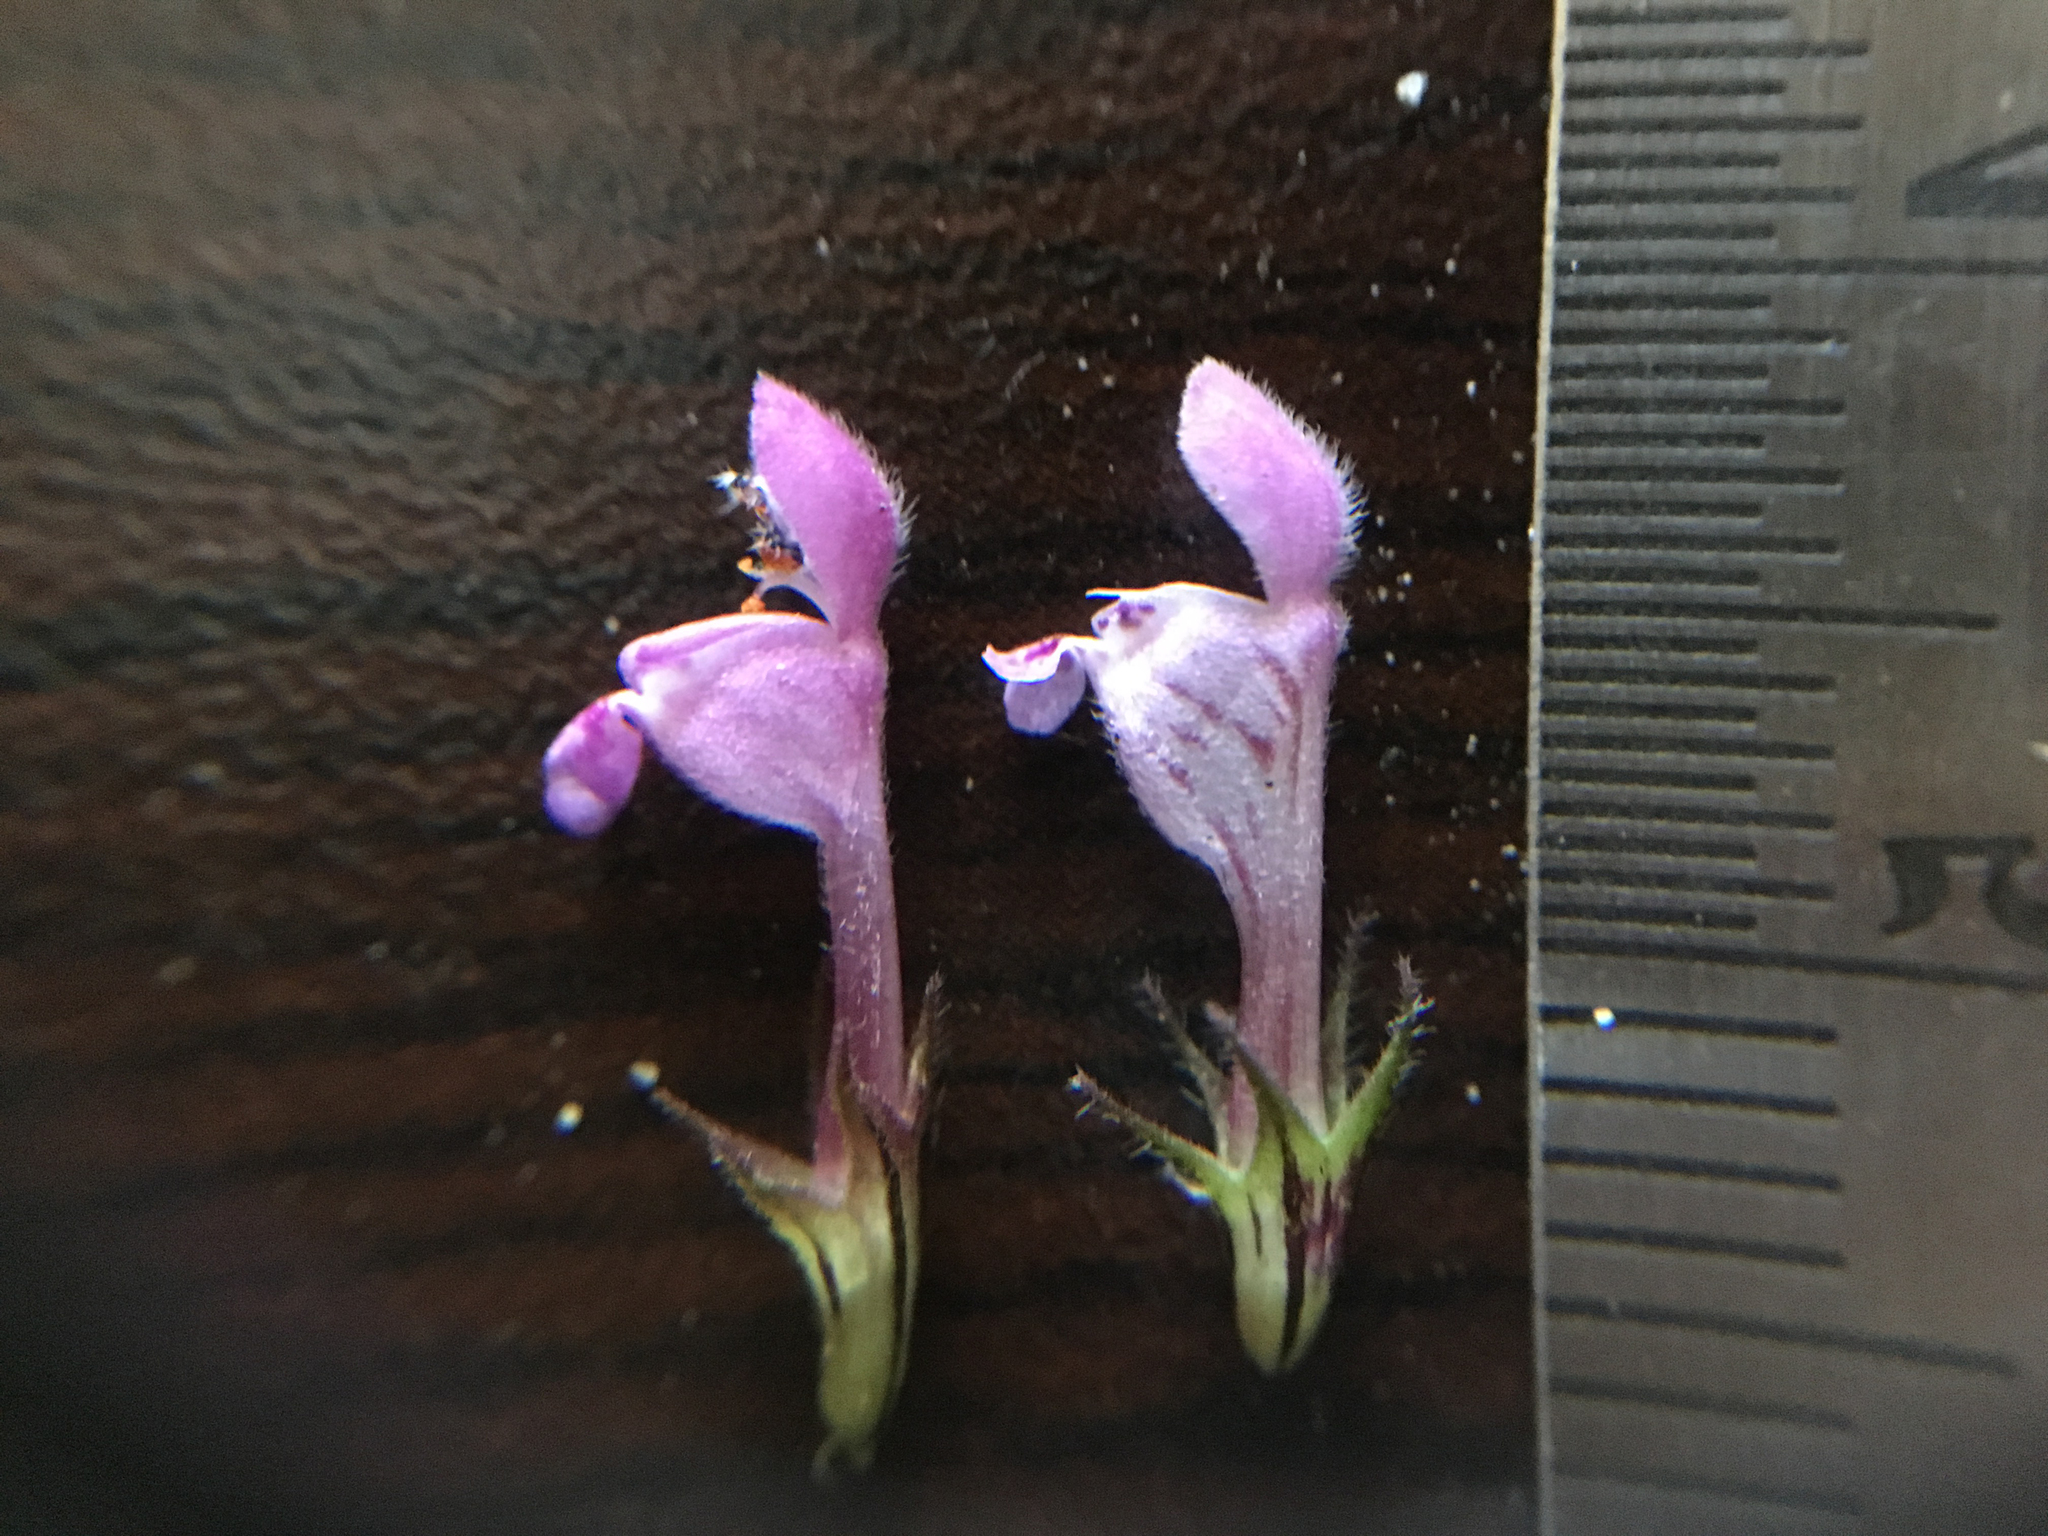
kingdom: Plantae
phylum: Tracheophyta
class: Magnoliopsida
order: Lamiales
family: Lamiaceae
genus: Lamium
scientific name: Lamium hybridum
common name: Cut-leaved dead-nettle
